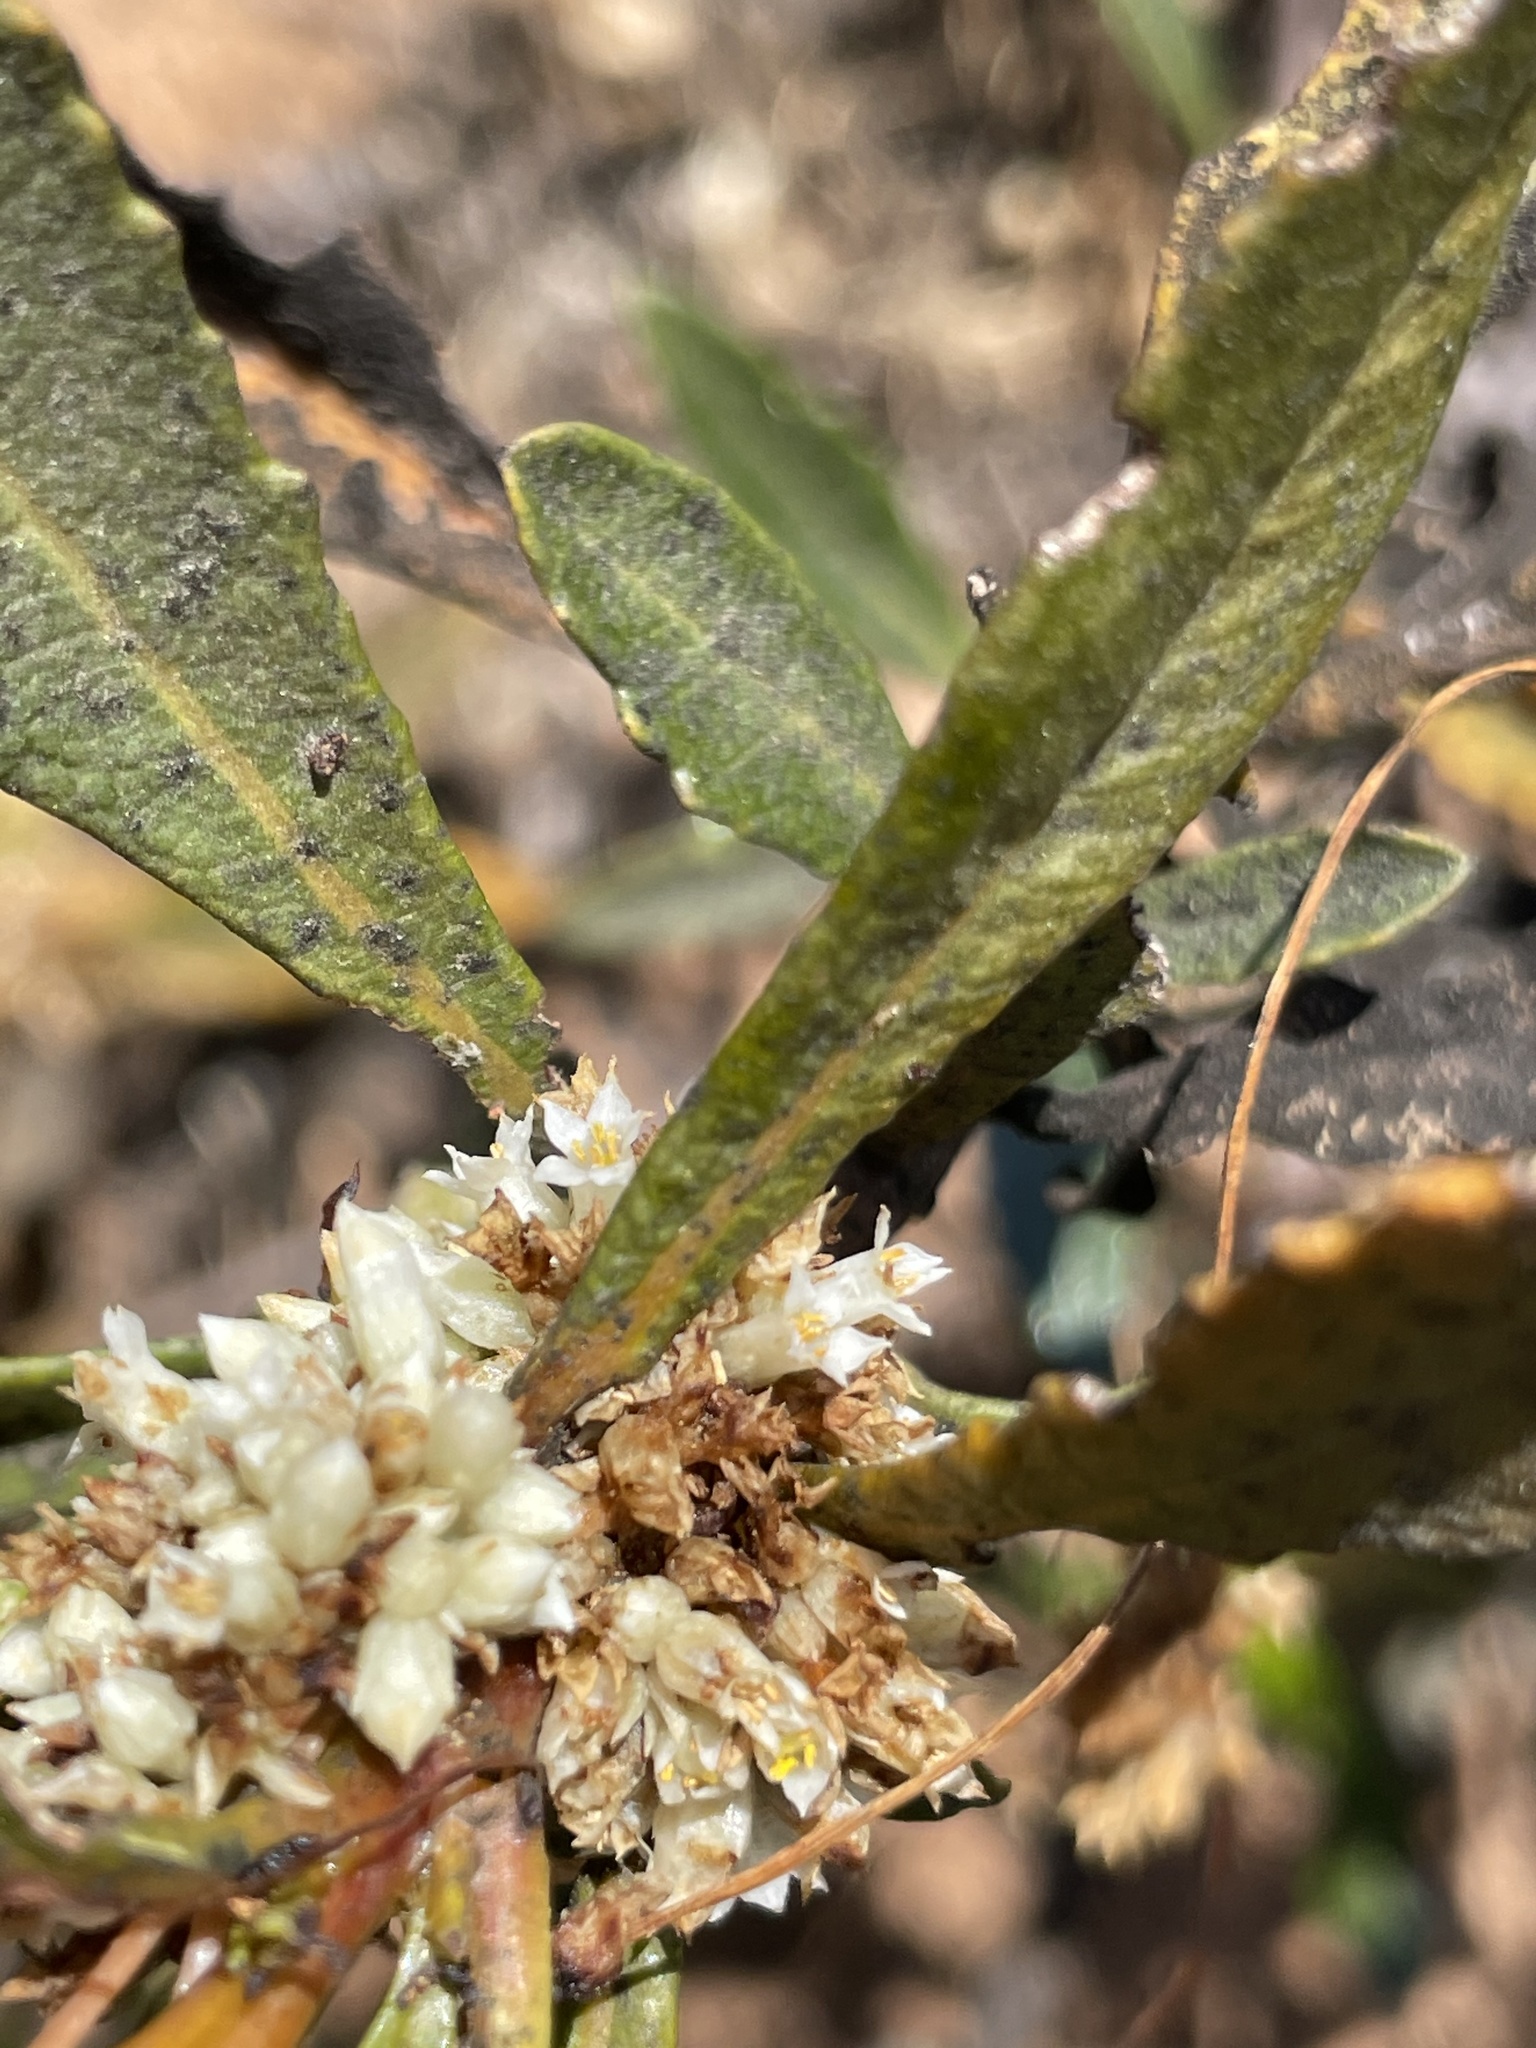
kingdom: Plantae
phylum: Tracheophyta
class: Magnoliopsida
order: Solanales
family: Convolvulaceae
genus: Cuscuta
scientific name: Cuscuta subinclusa
